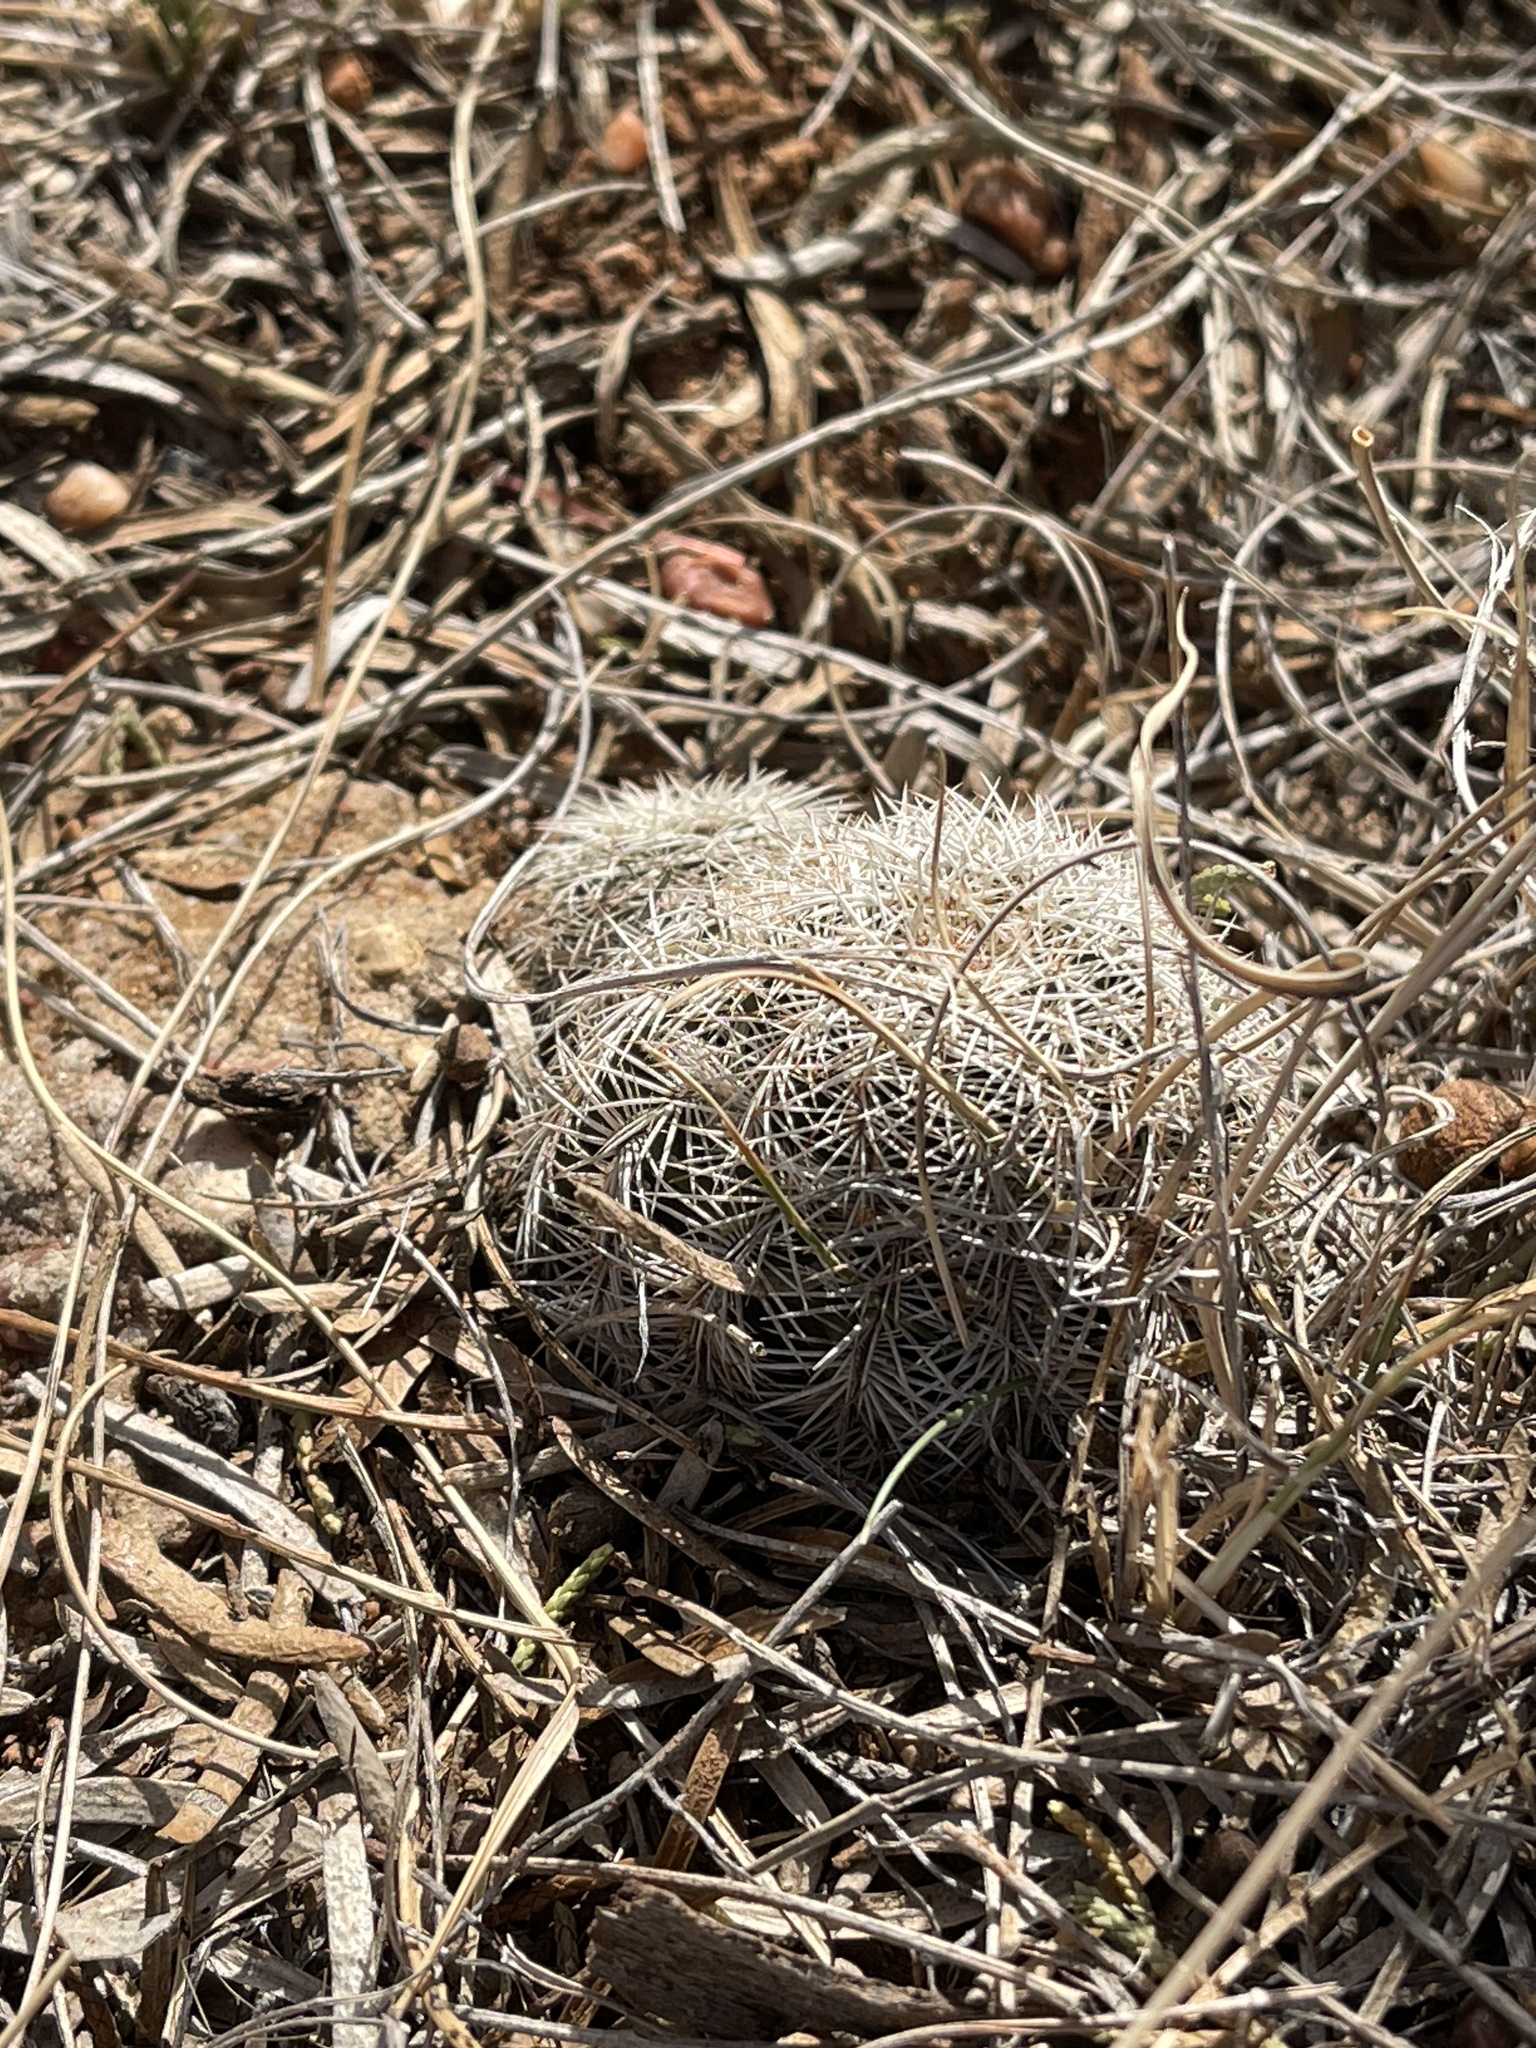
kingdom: Plantae
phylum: Tracheophyta
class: Magnoliopsida
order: Caryophyllales
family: Cactaceae
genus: Echinocereus
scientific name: Echinocereus reichenbachii
